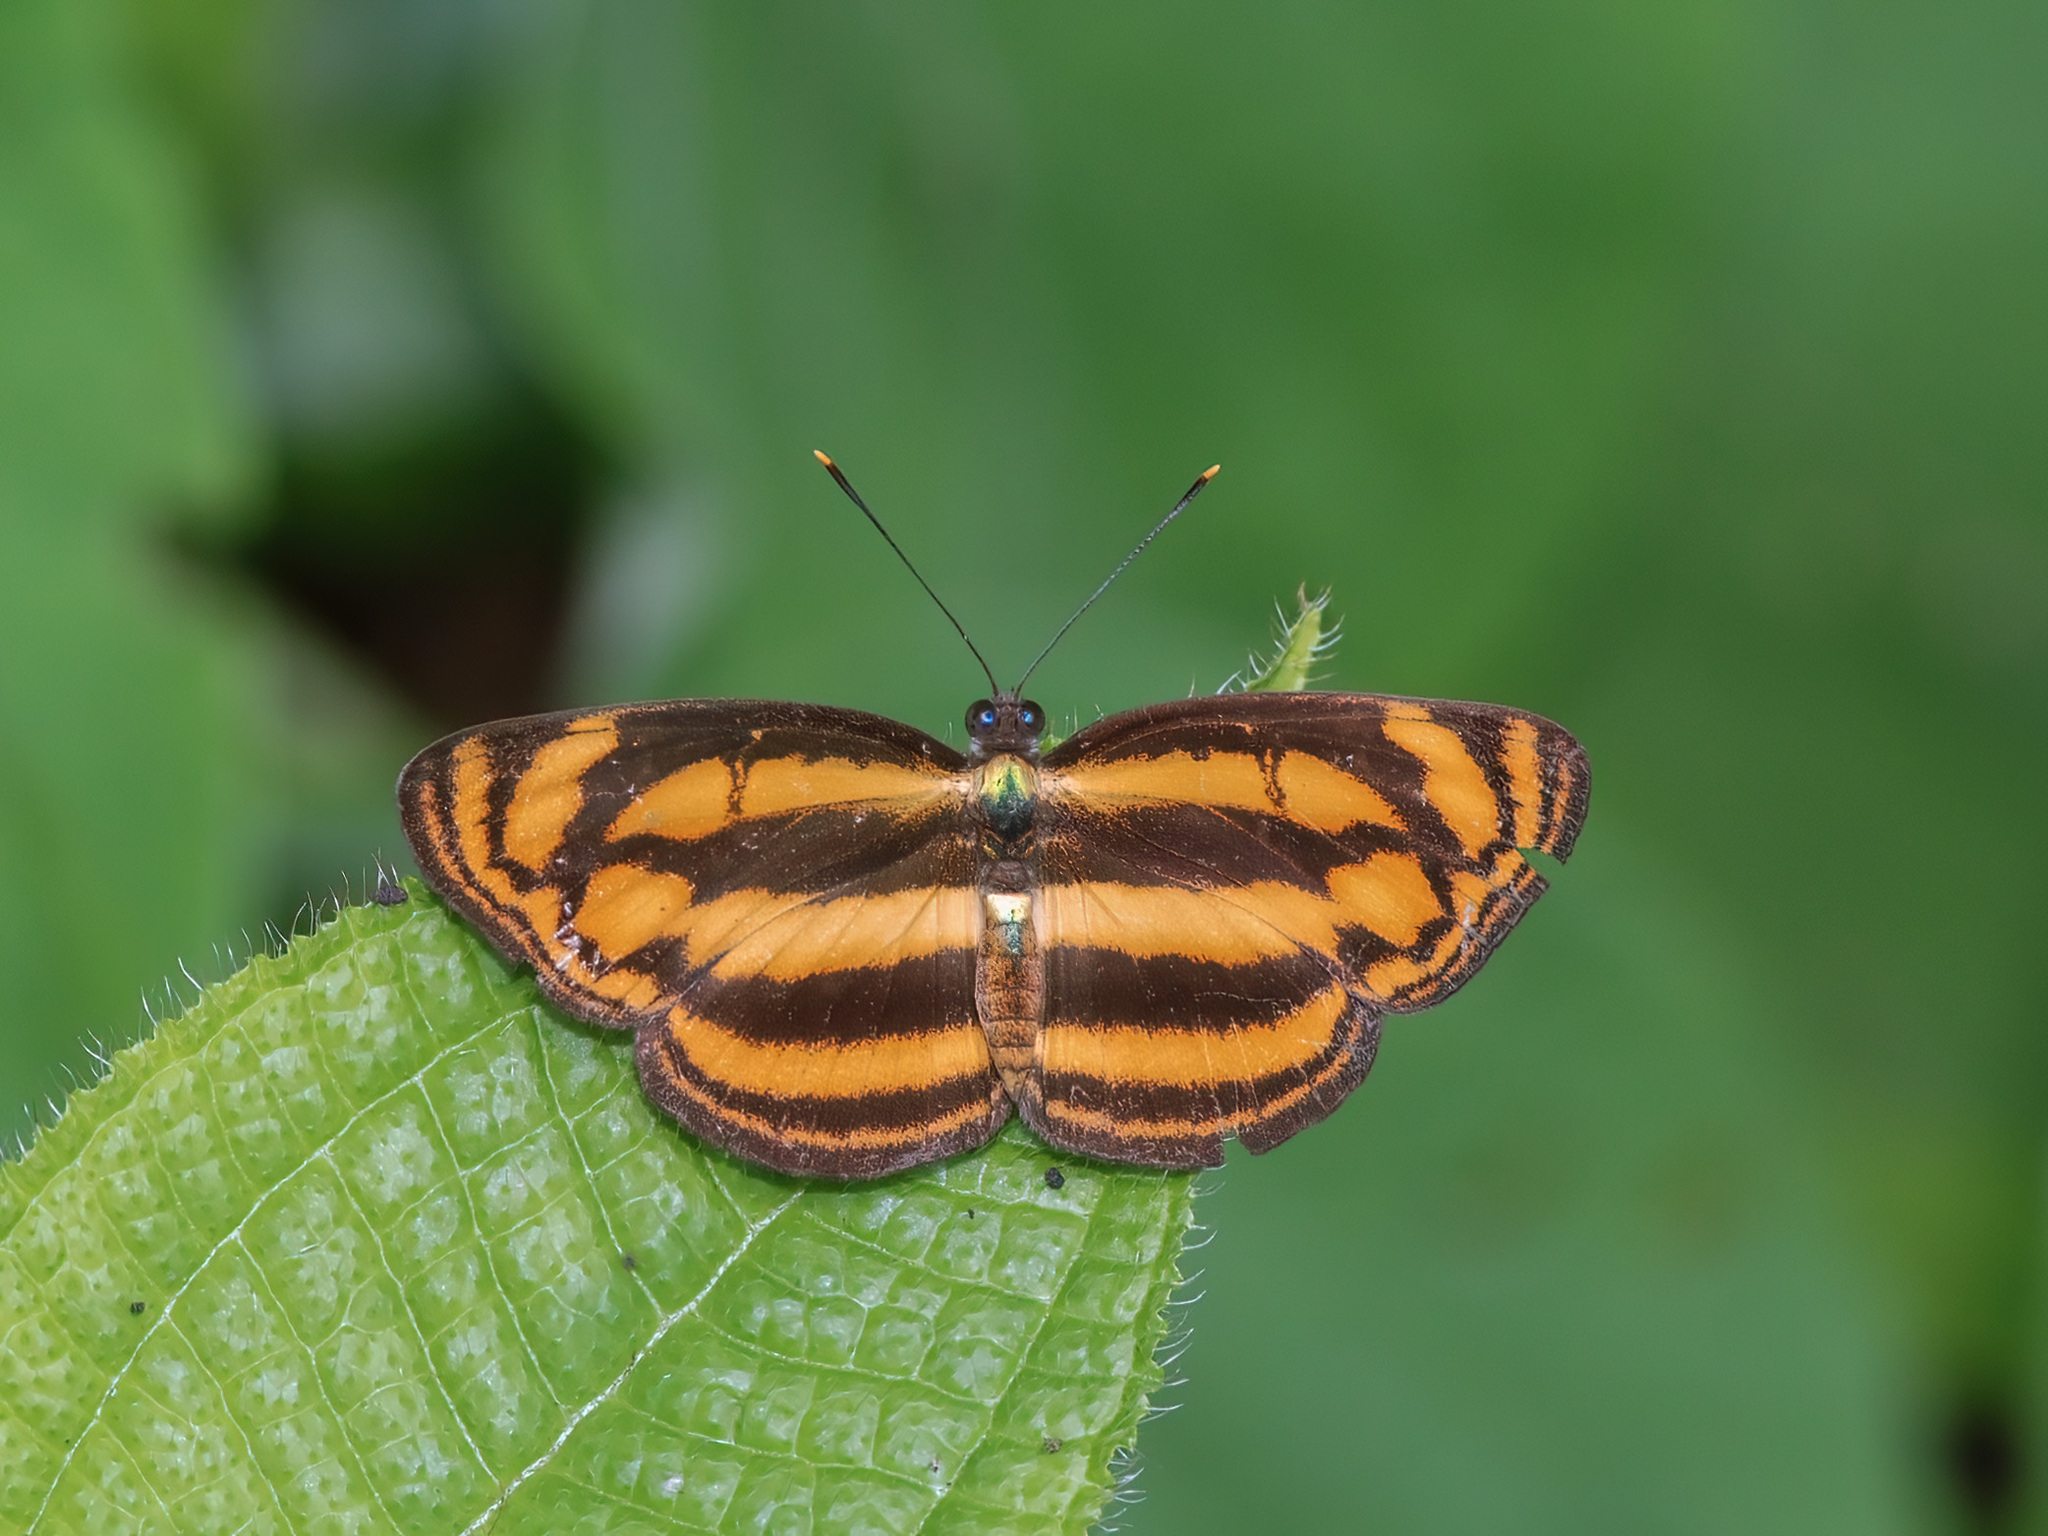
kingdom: Animalia
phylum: Arthropoda
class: Insecta
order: Lepidoptera
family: Nymphalidae
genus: Lasippa
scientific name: Lasippa tiga
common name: Malayan lascar
